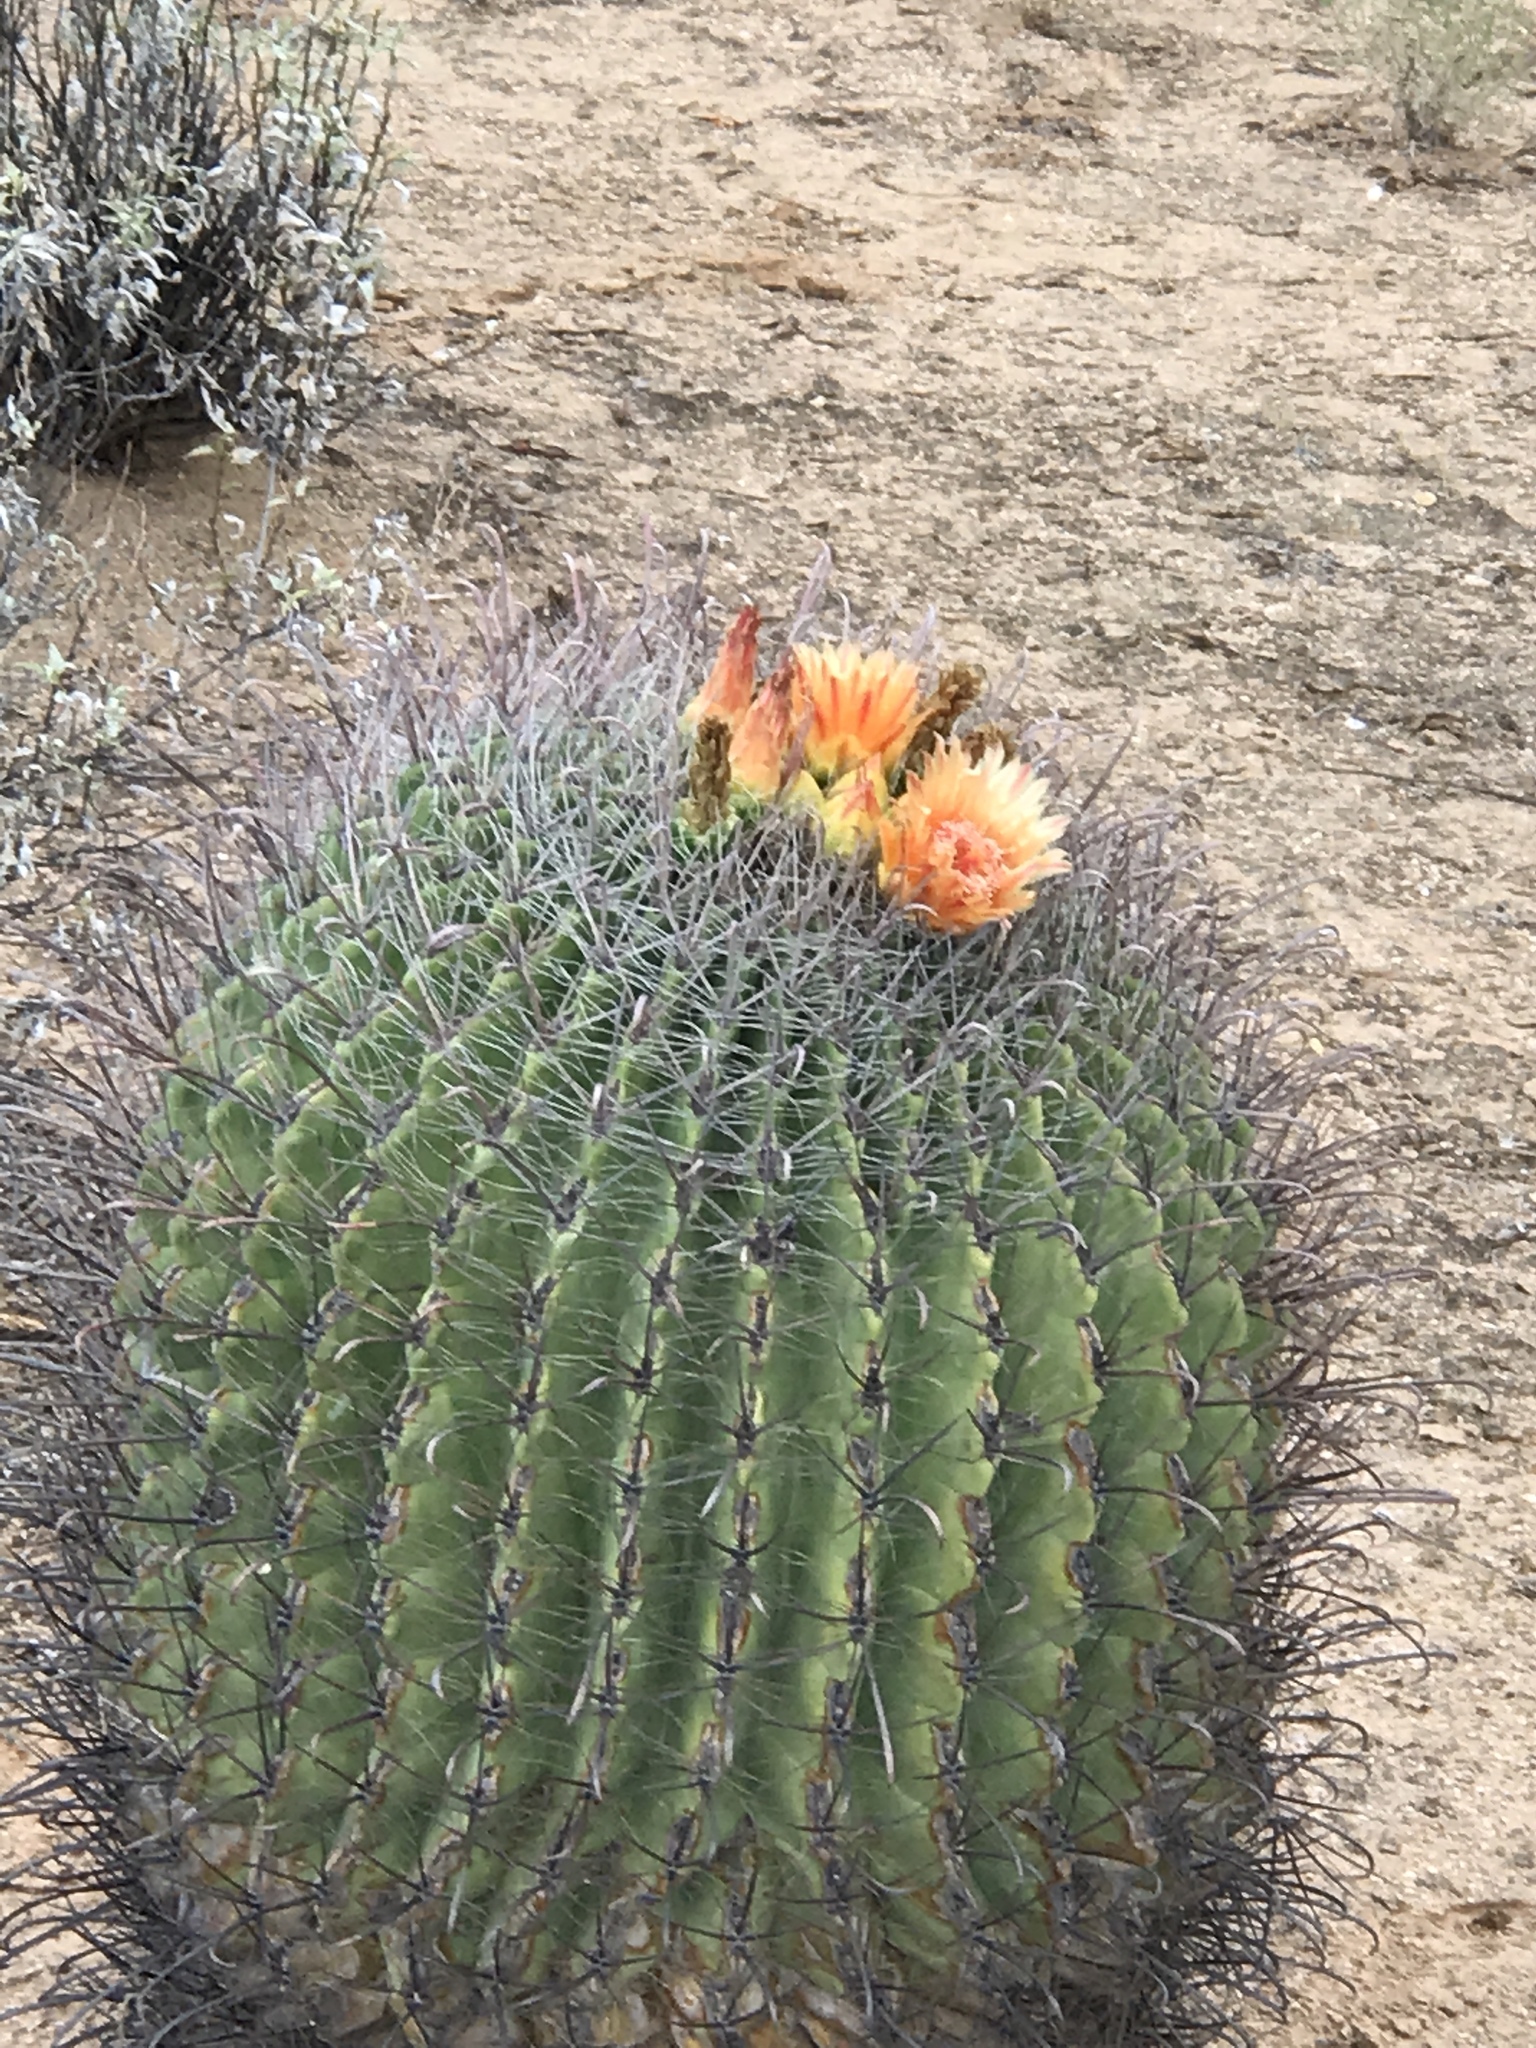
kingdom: Plantae
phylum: Tracheophyta
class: Magnoliopsida
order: Caryophyllales
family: Cactaceae
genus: Ferocactus
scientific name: Ferocactus wislizeni
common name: Candy barrel cactus
